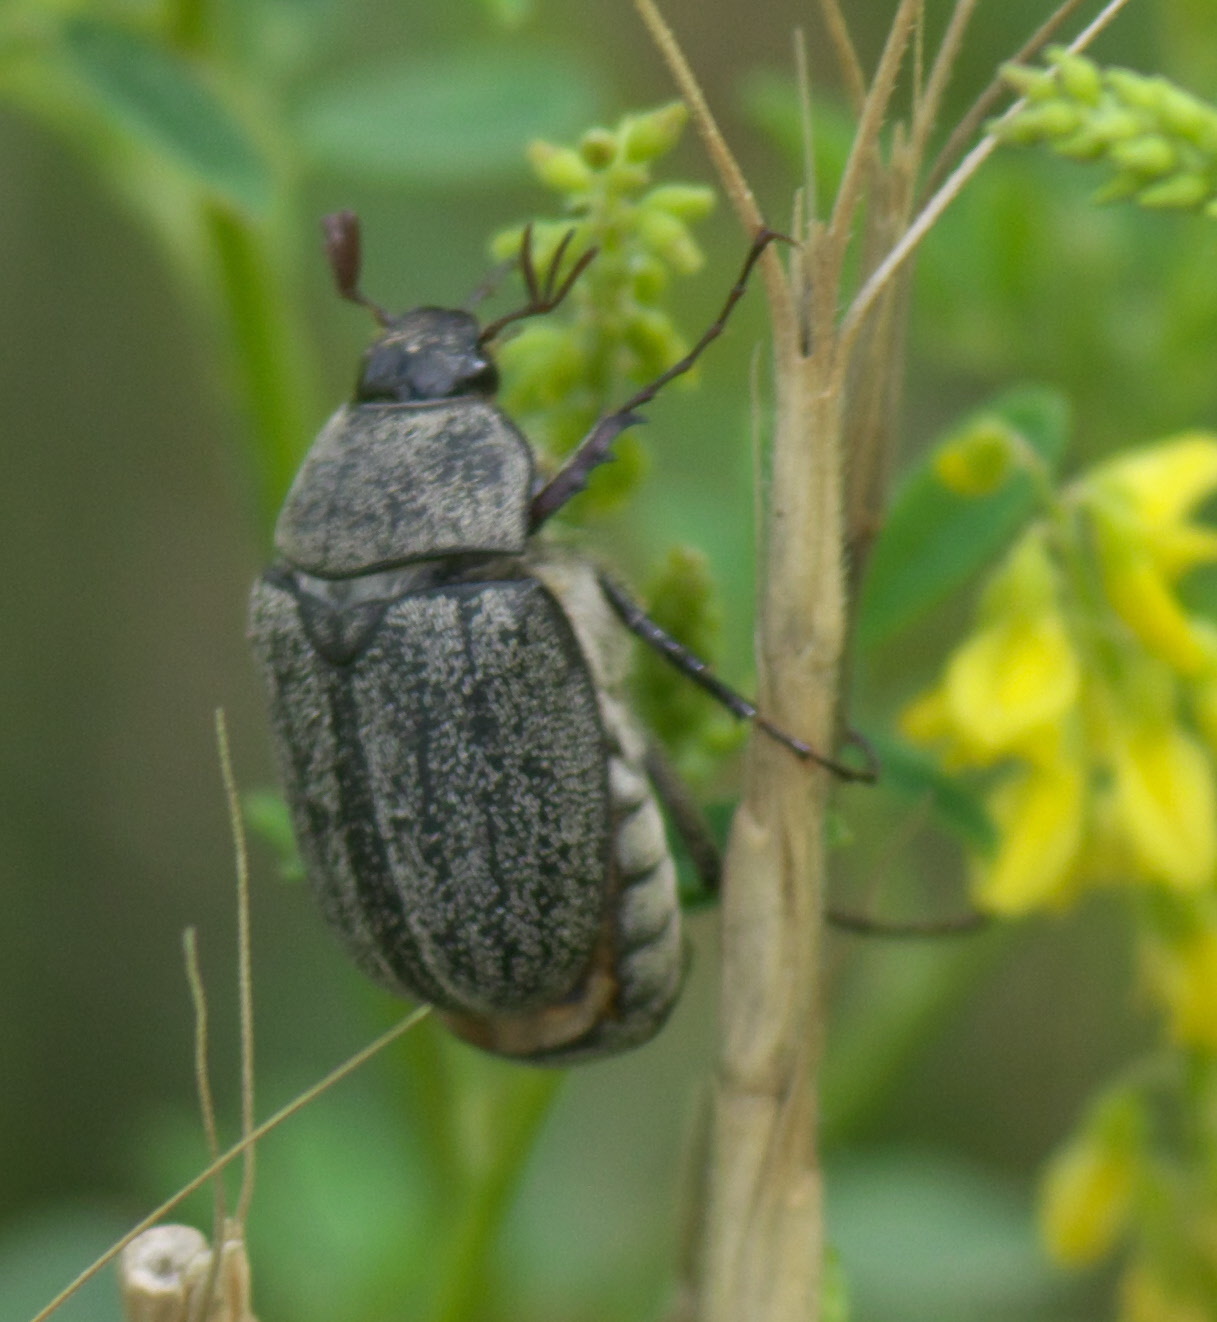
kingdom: Animalia
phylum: Arthropoda
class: Insecta
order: Coleoptera
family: Scarabaeidae
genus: Phyllophaga
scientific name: Phyllophaga lanceolata
